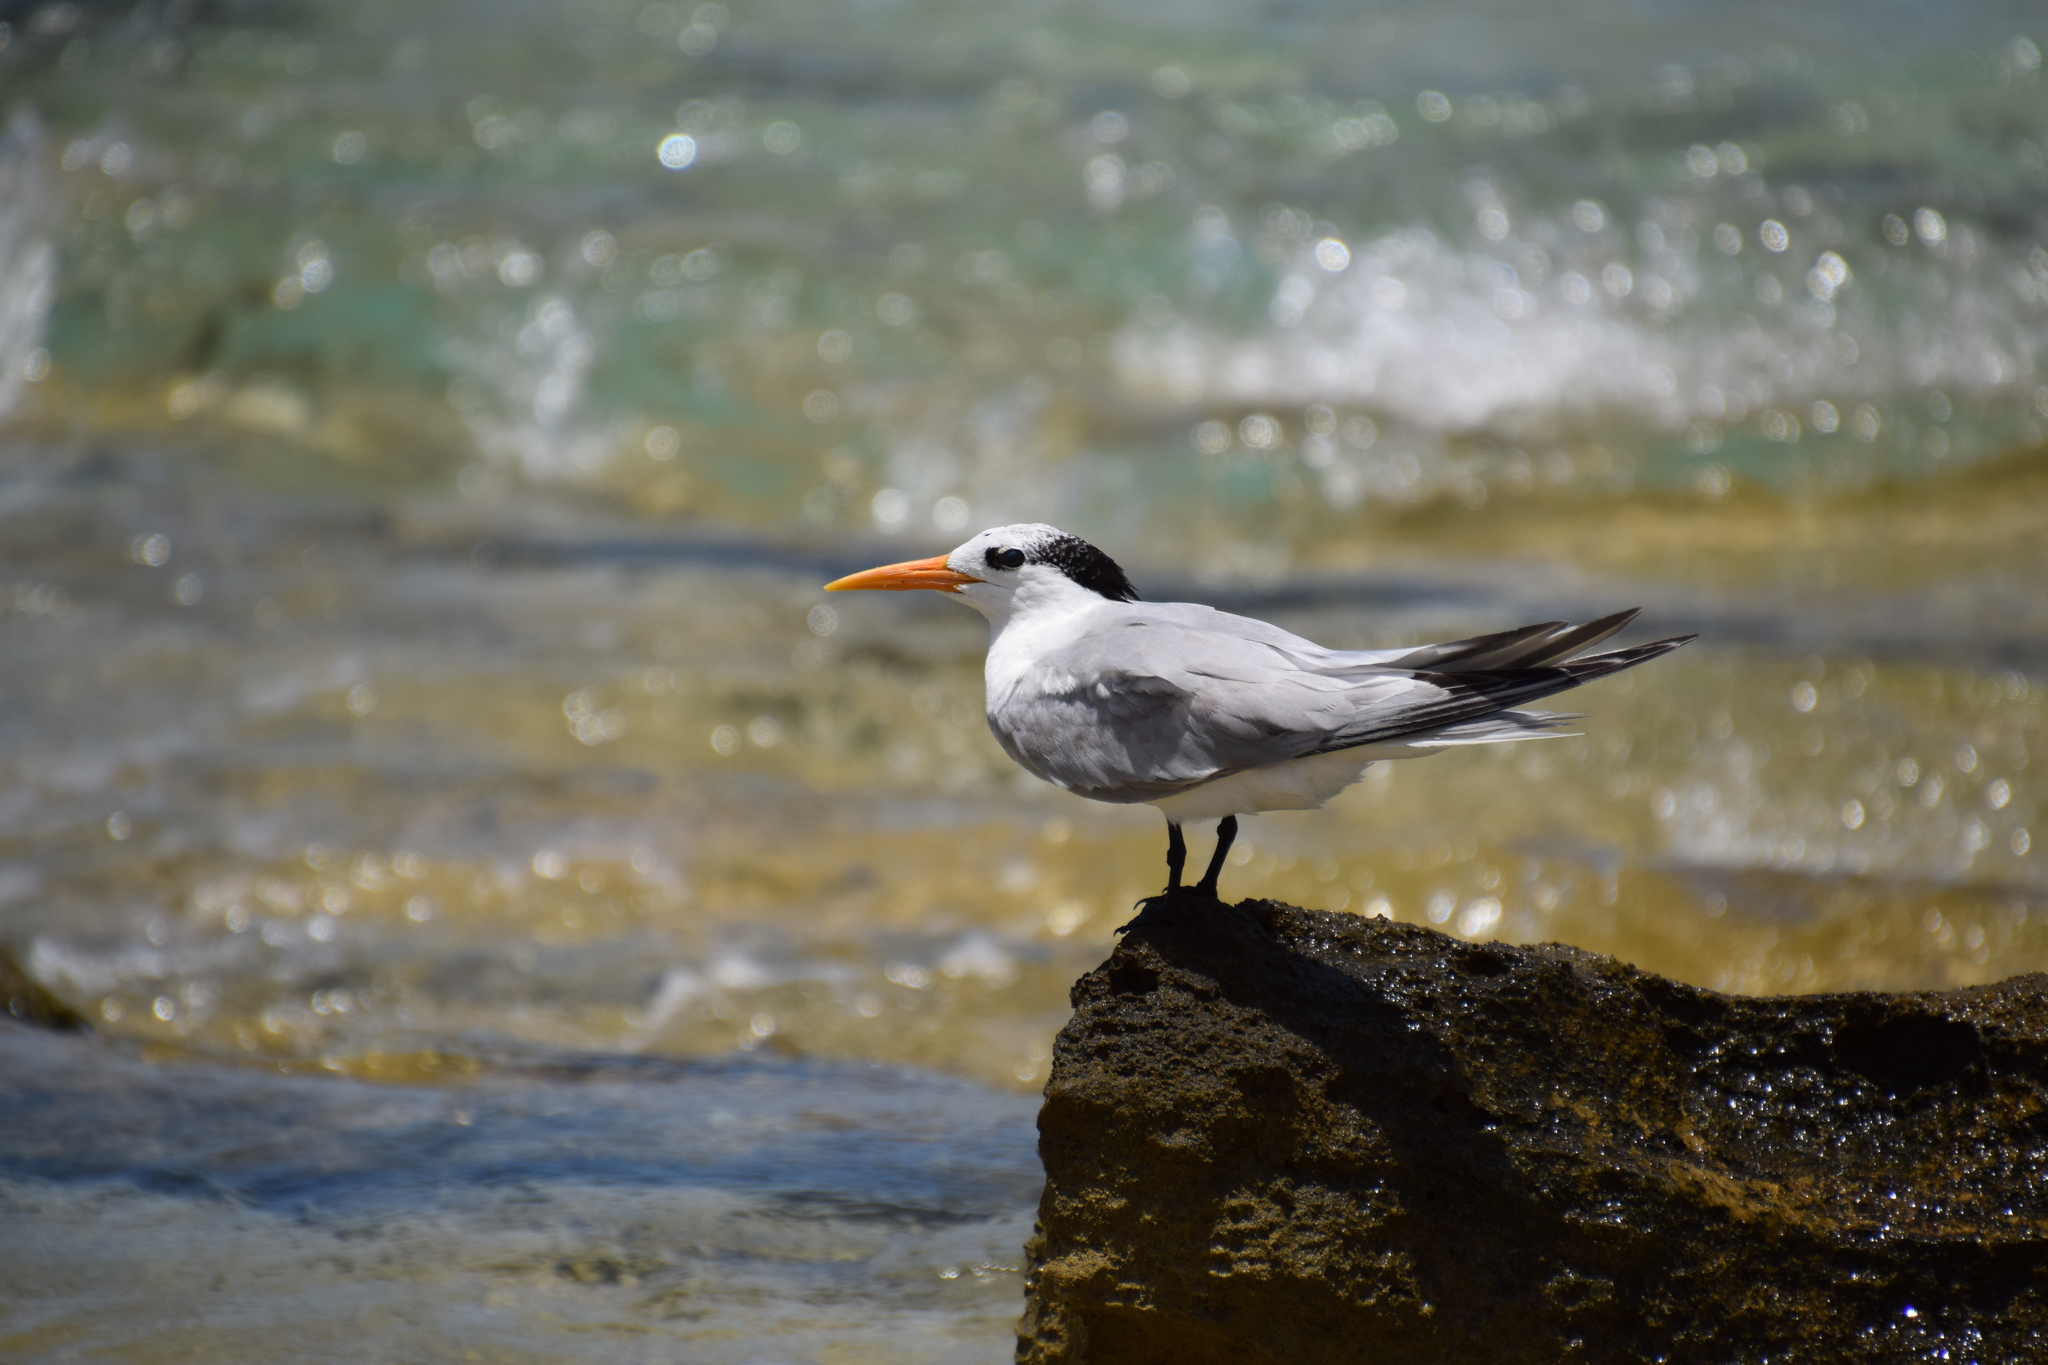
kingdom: Animalia
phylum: Chordata
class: Aves
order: Charadriiformes
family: Laridae
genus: Thalasseus
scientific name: Thalasseus bengalensis
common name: Lesser crested tern
